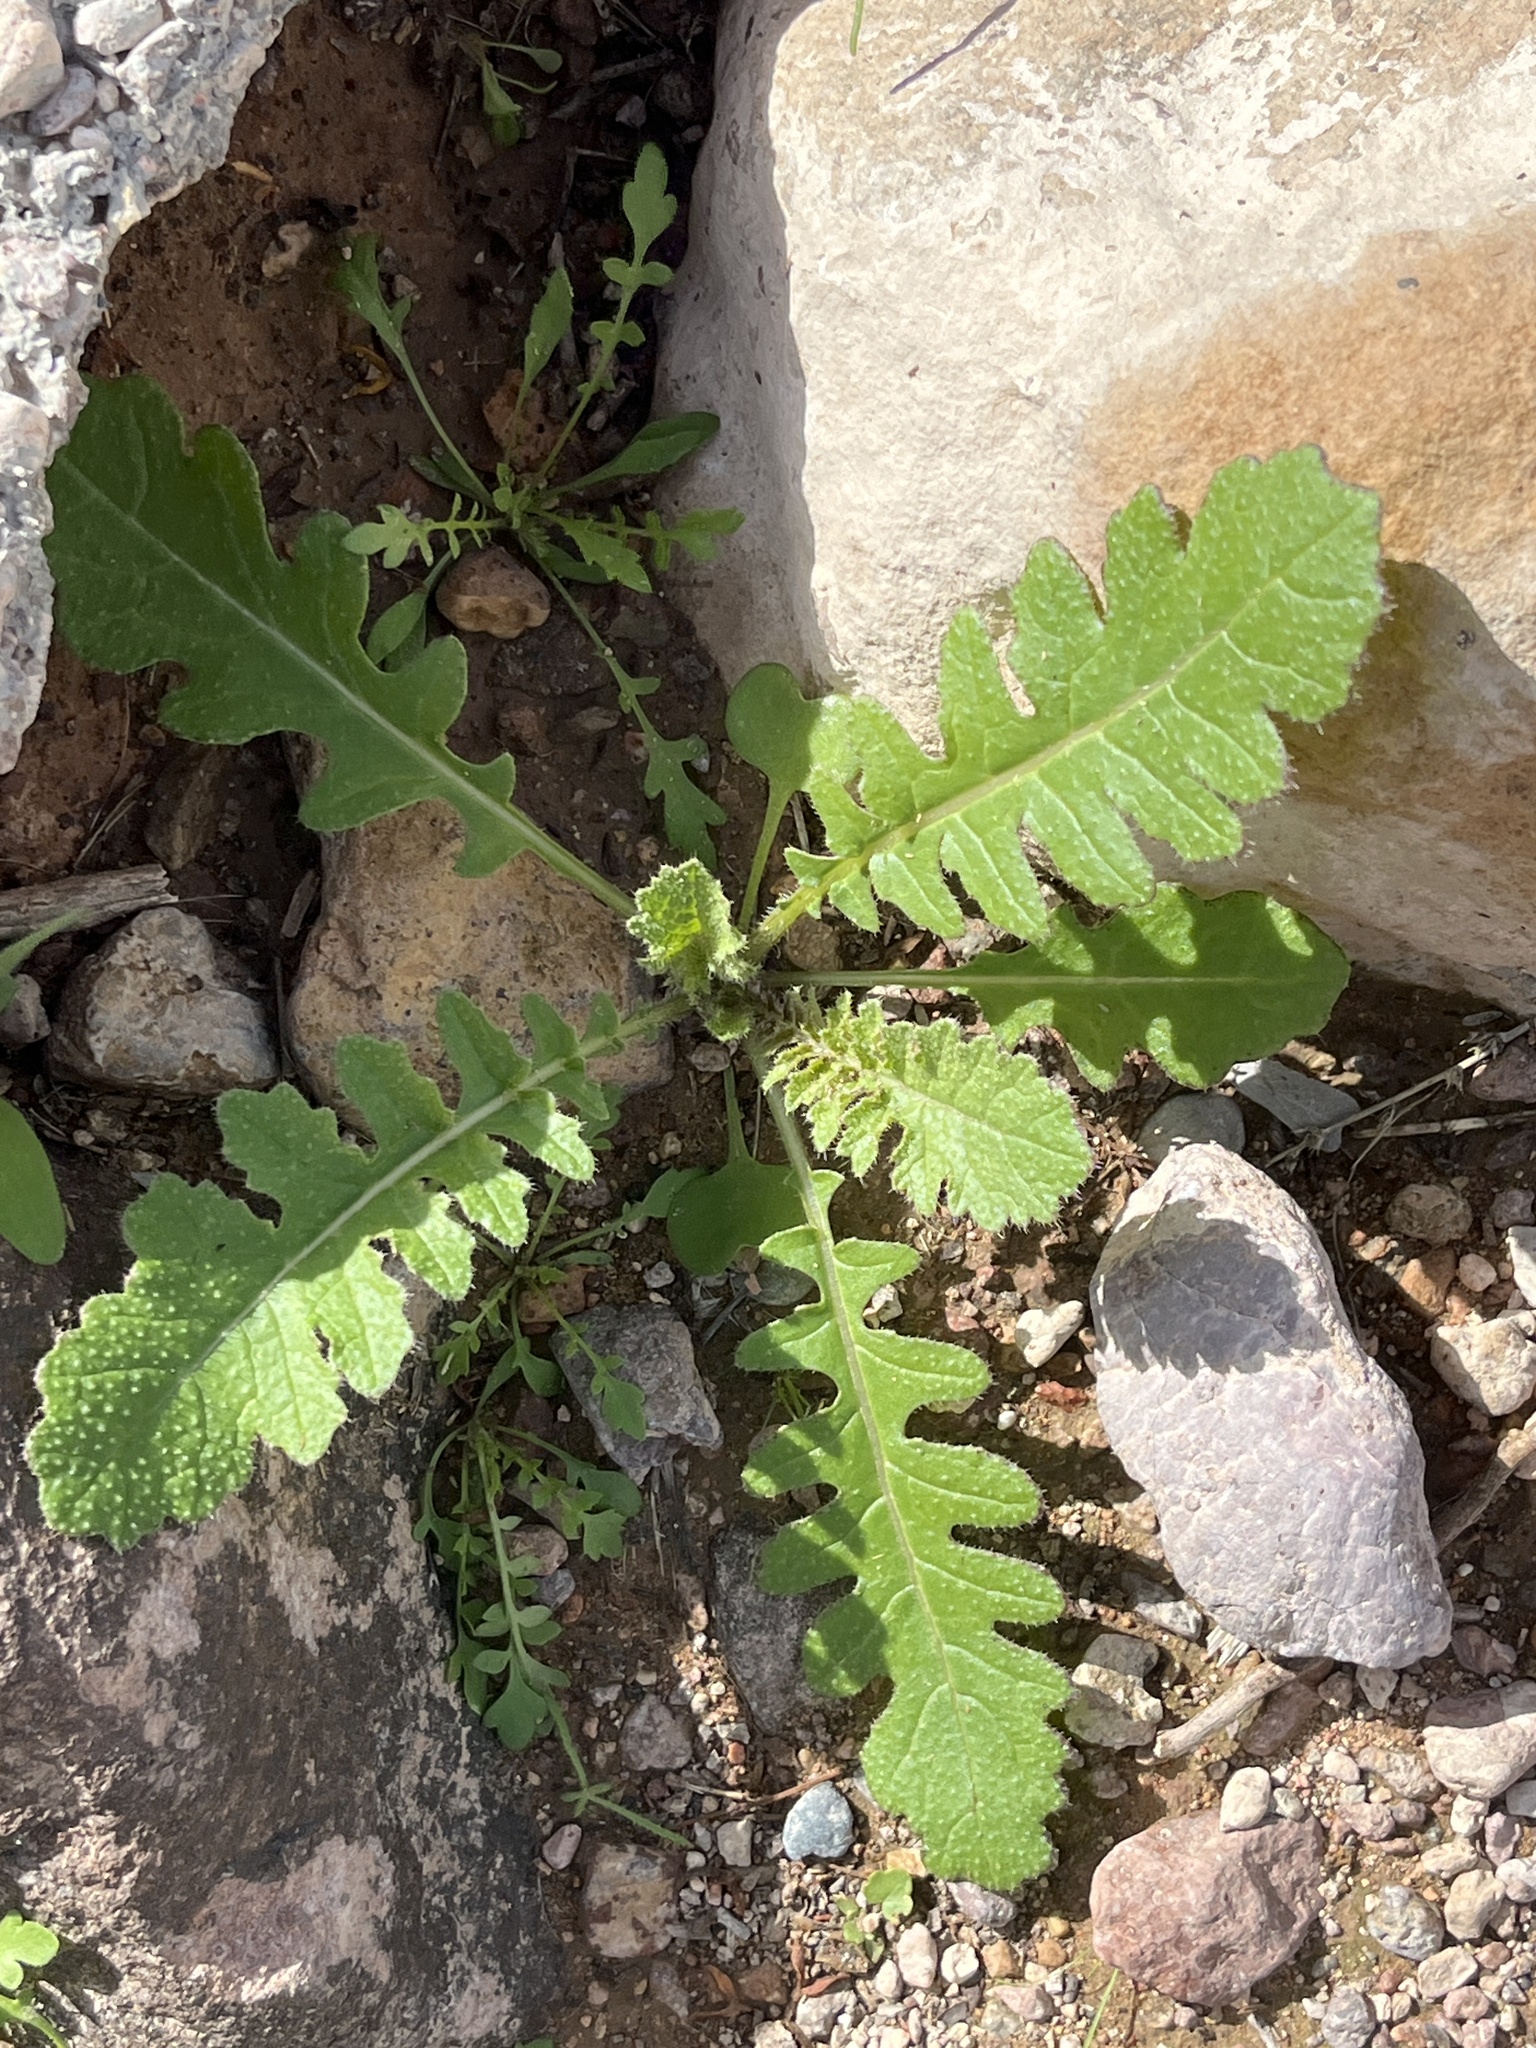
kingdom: Plantae
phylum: Tracheophyta
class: Magnoliopsida
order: Brassicales
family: Brassicaceae
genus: Brassica
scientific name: Brassica tournefortii
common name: Pale cabbage
